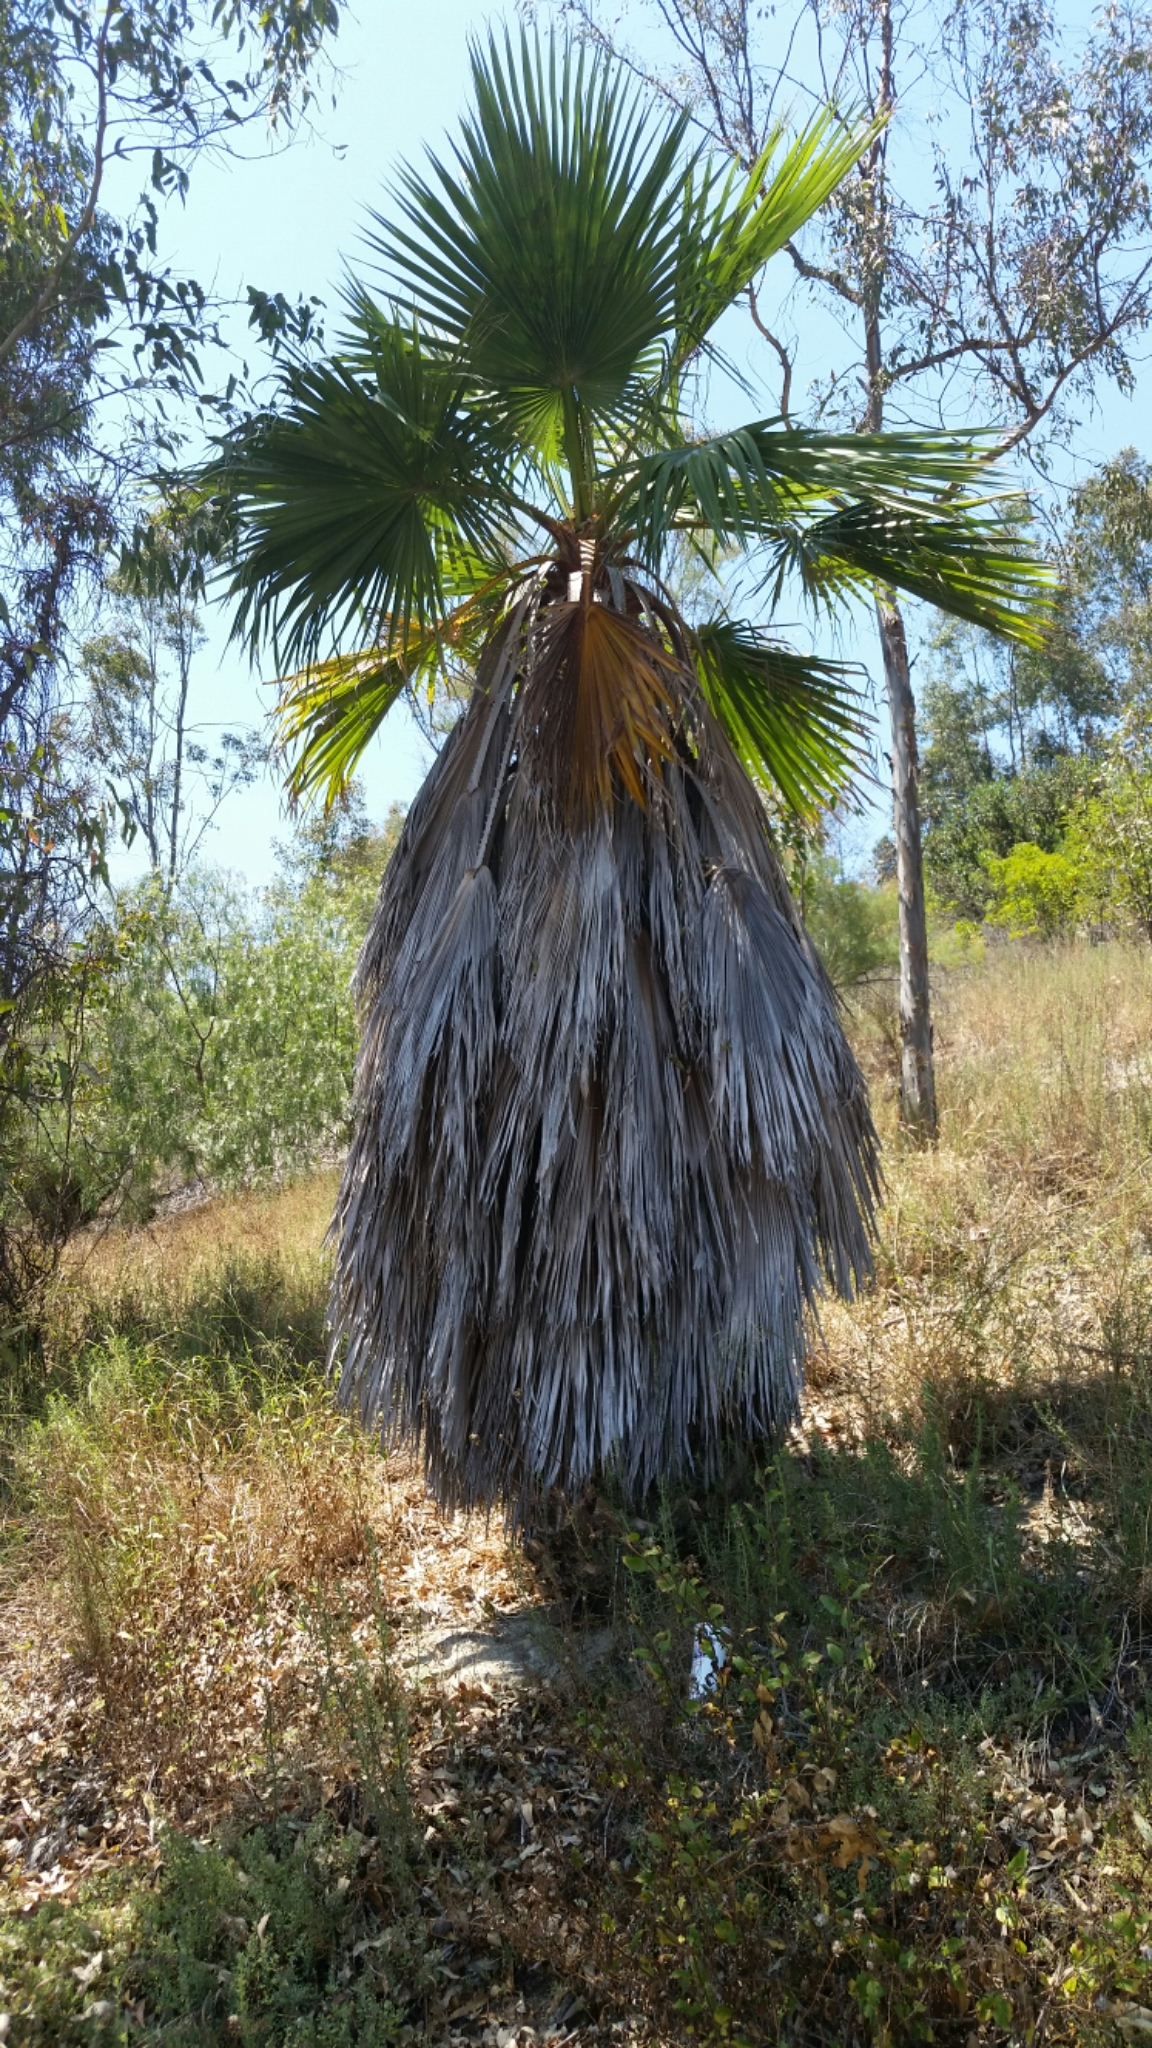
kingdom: Plantae
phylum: Tracheophyta
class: Liliopsida
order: Arecales
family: Arecaceae
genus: Washingtonia
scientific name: Washingtonia robusta
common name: Mexican fan palm
